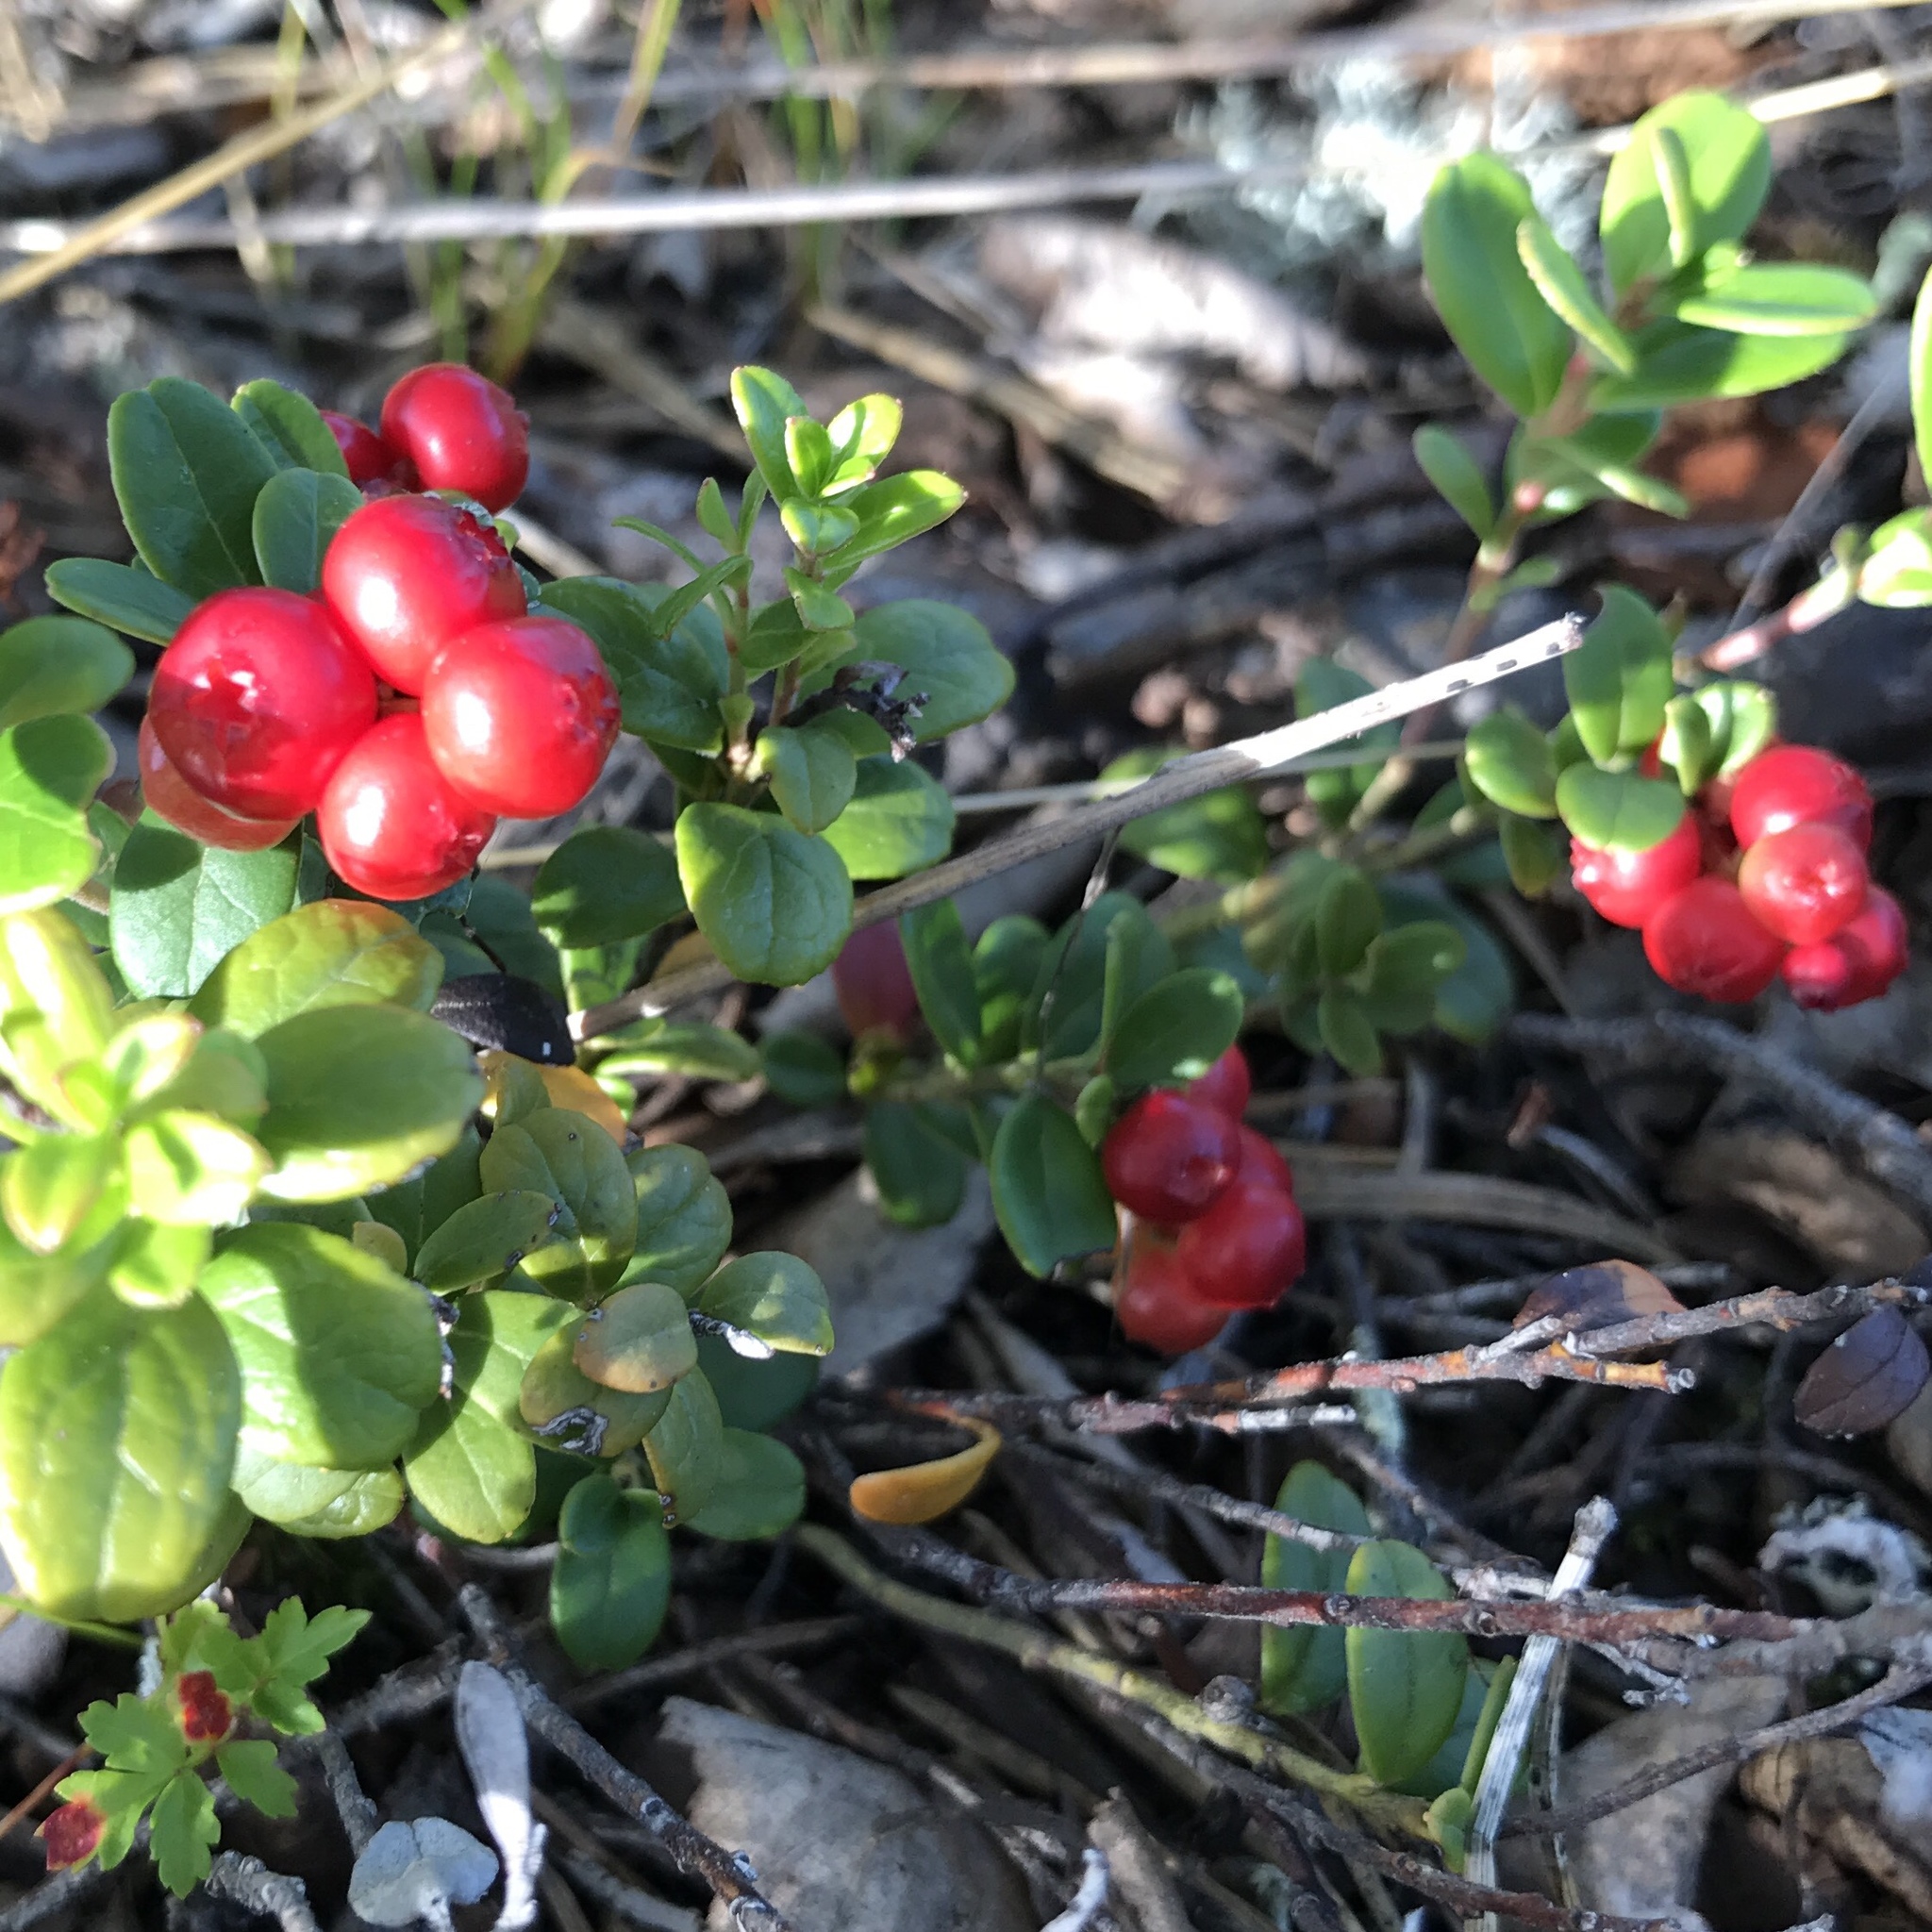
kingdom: Plantae
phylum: Tracheophyta
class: Magnoliopsida
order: Ericales
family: Ericaceae
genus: Vaccinium
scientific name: Vaccinium vitis-idaea
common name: Cowberry
